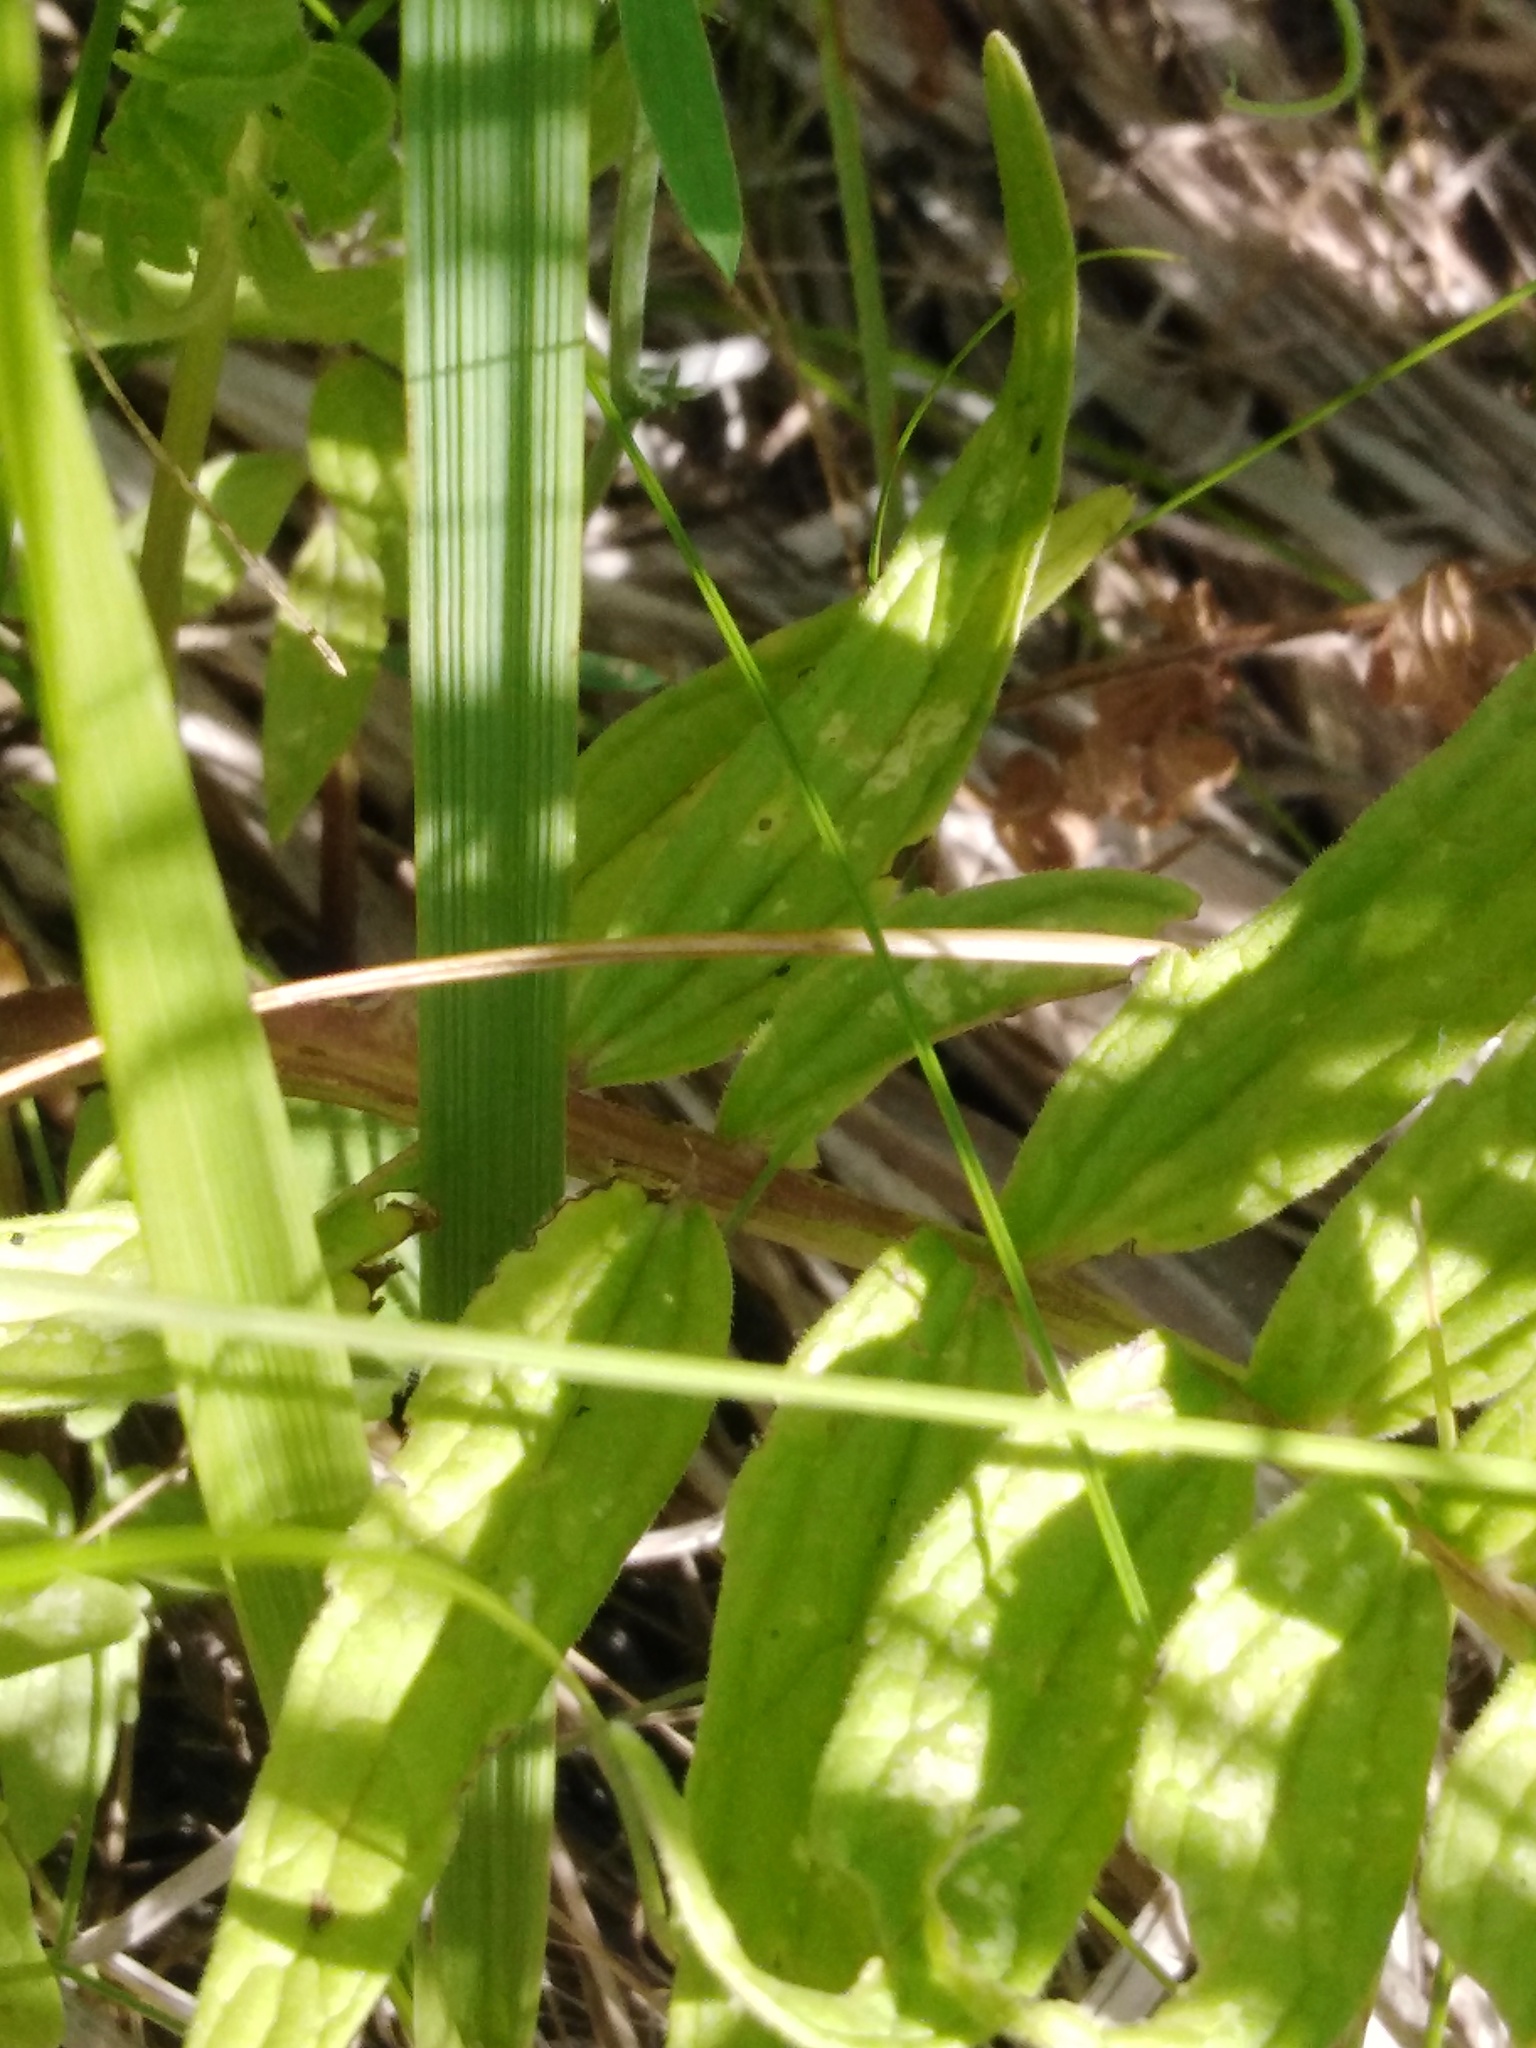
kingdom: Plantae
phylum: Tracheophyta
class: Magnoliopsida
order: Dipsacales
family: Caprifoliaceae
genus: Valeriana
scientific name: Valeriana officinalis
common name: Common valerian
